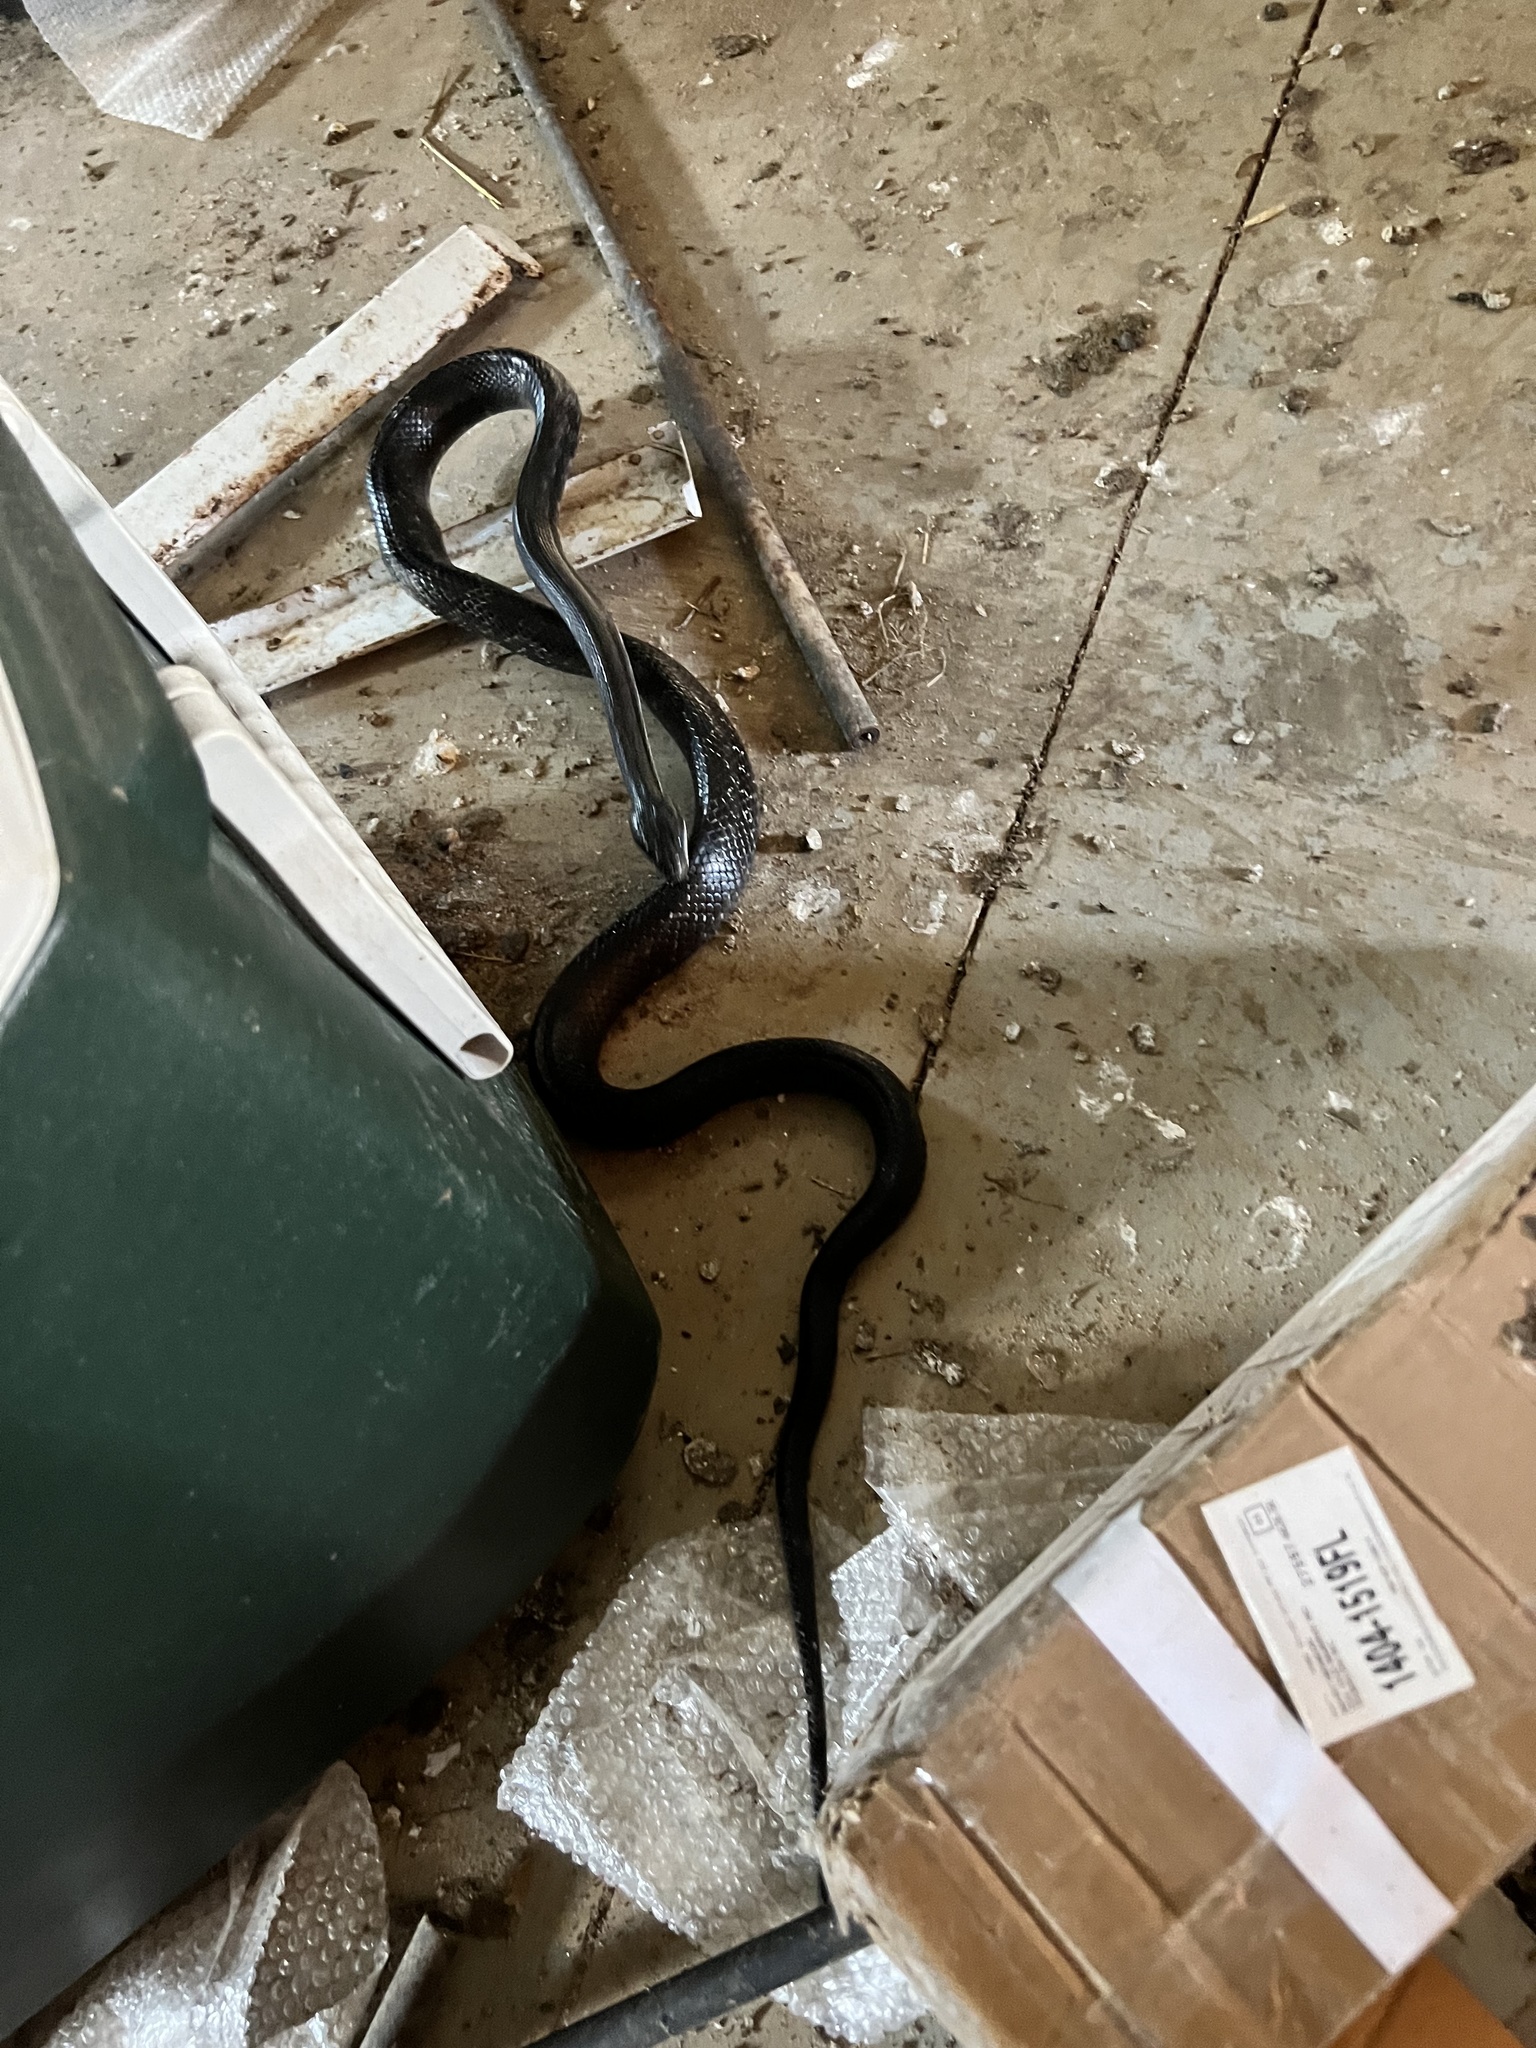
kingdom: Animalia
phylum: Chordata
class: Squamata
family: Colubridae
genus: Pantherophis
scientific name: Pantherophis alleghaniensis
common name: Eastern rat snake
